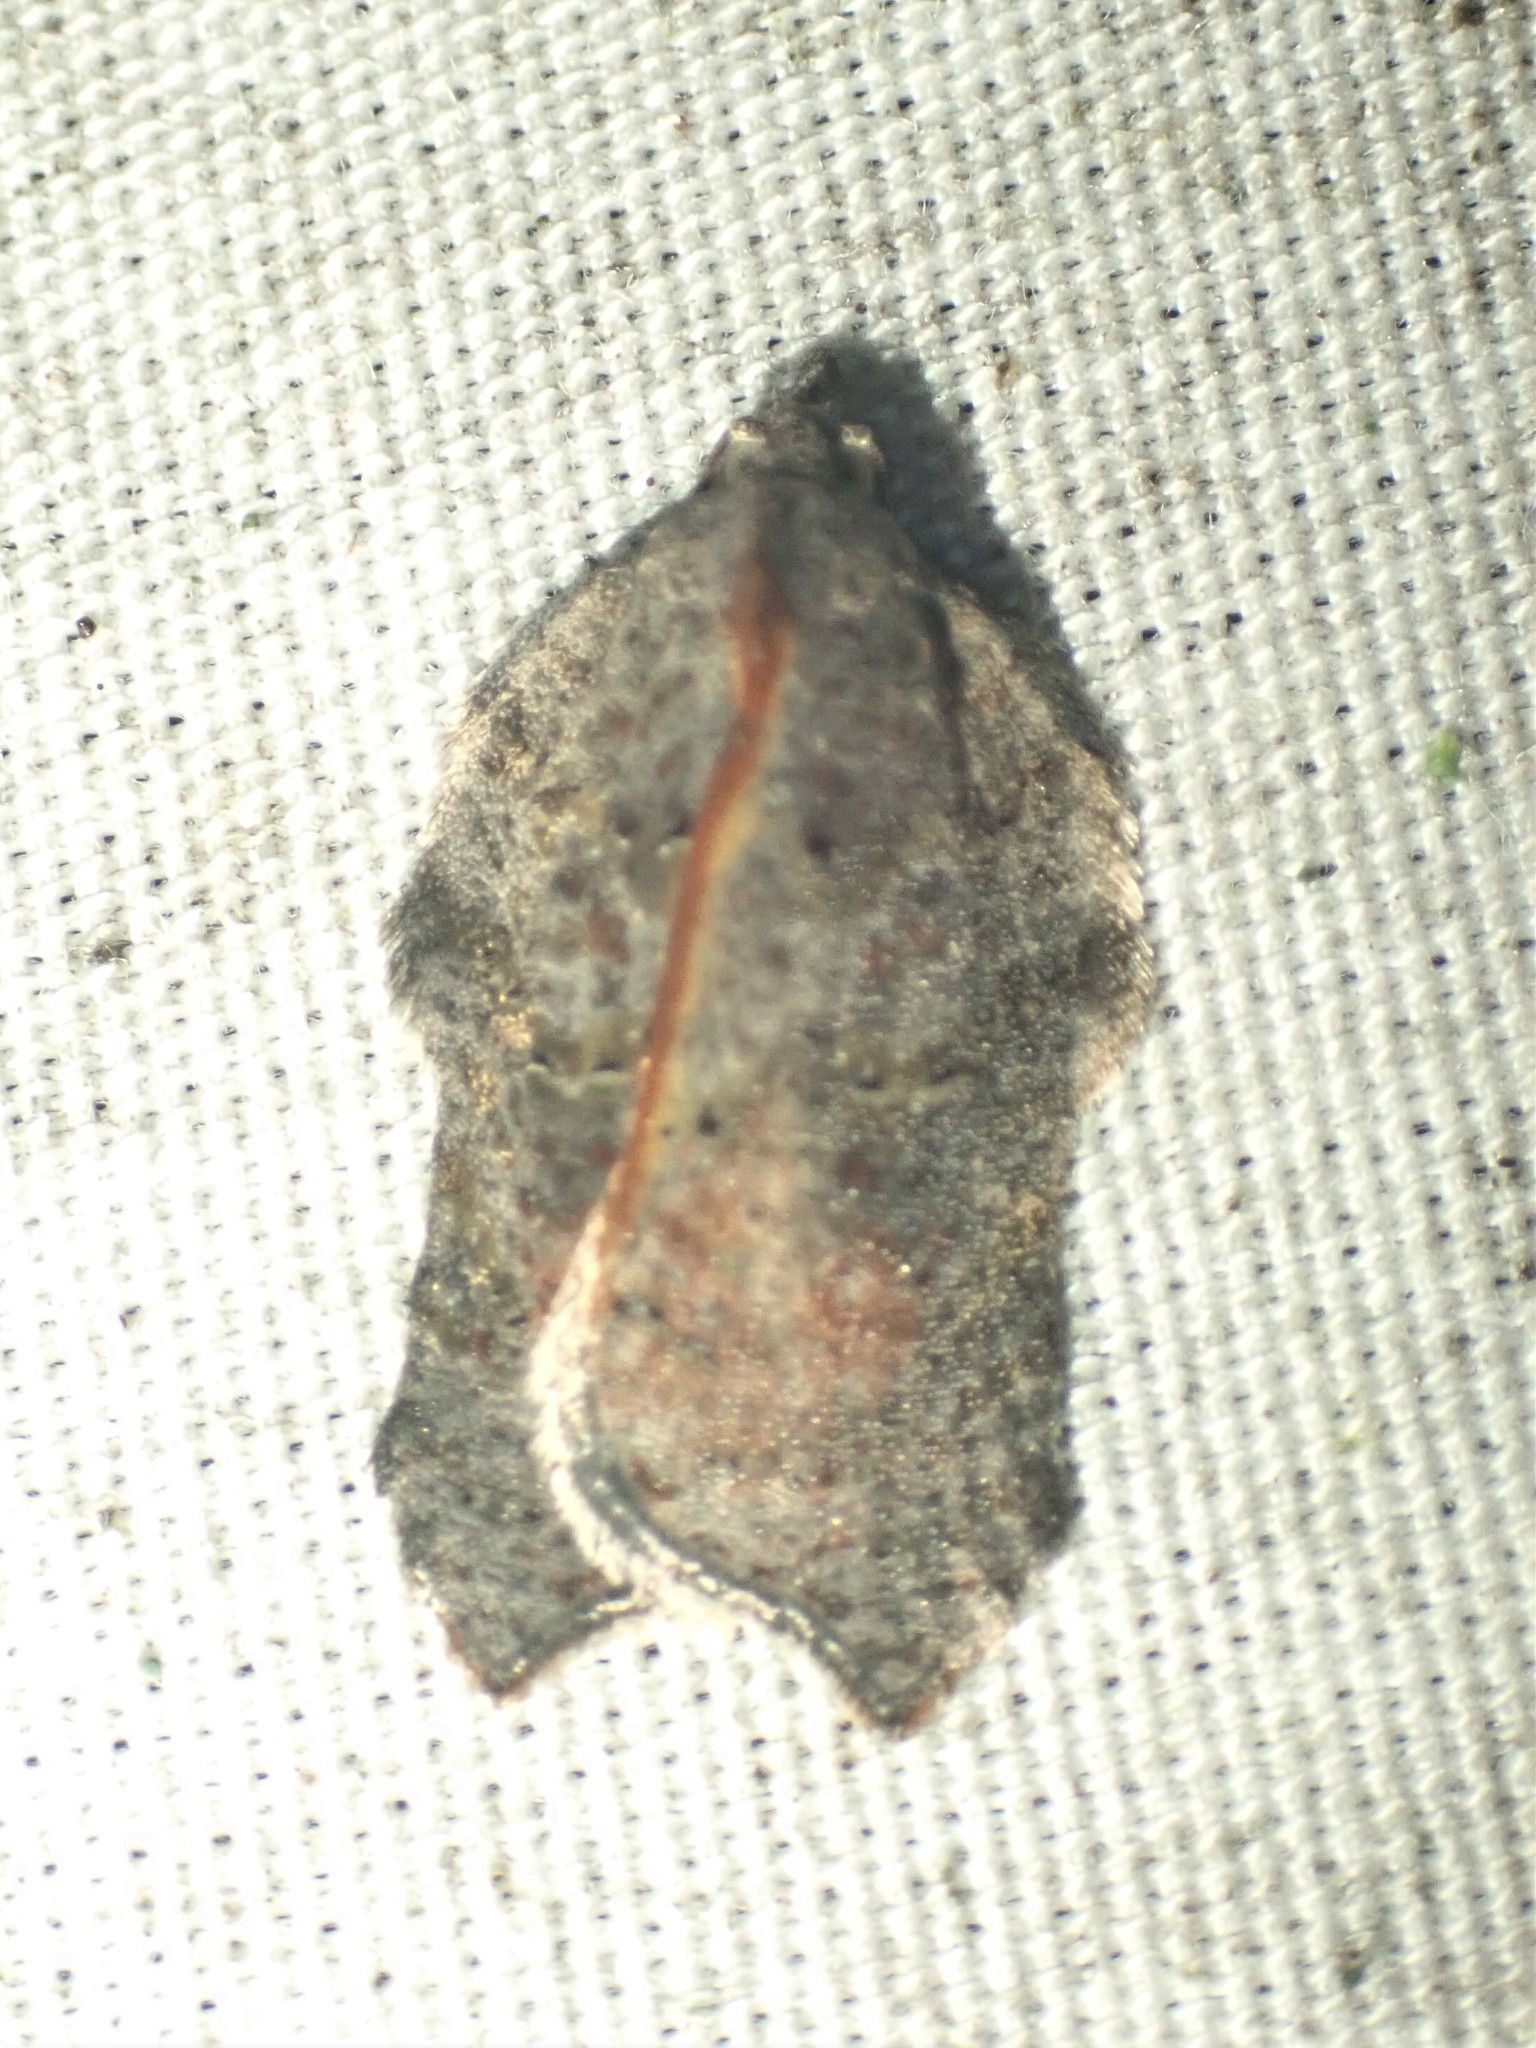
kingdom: Animalia
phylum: Arthropoda
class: Insecta
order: Lepidoptera
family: Tortricidae
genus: Acleris
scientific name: Acleris effractana
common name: Hook-winged tortrix moth
